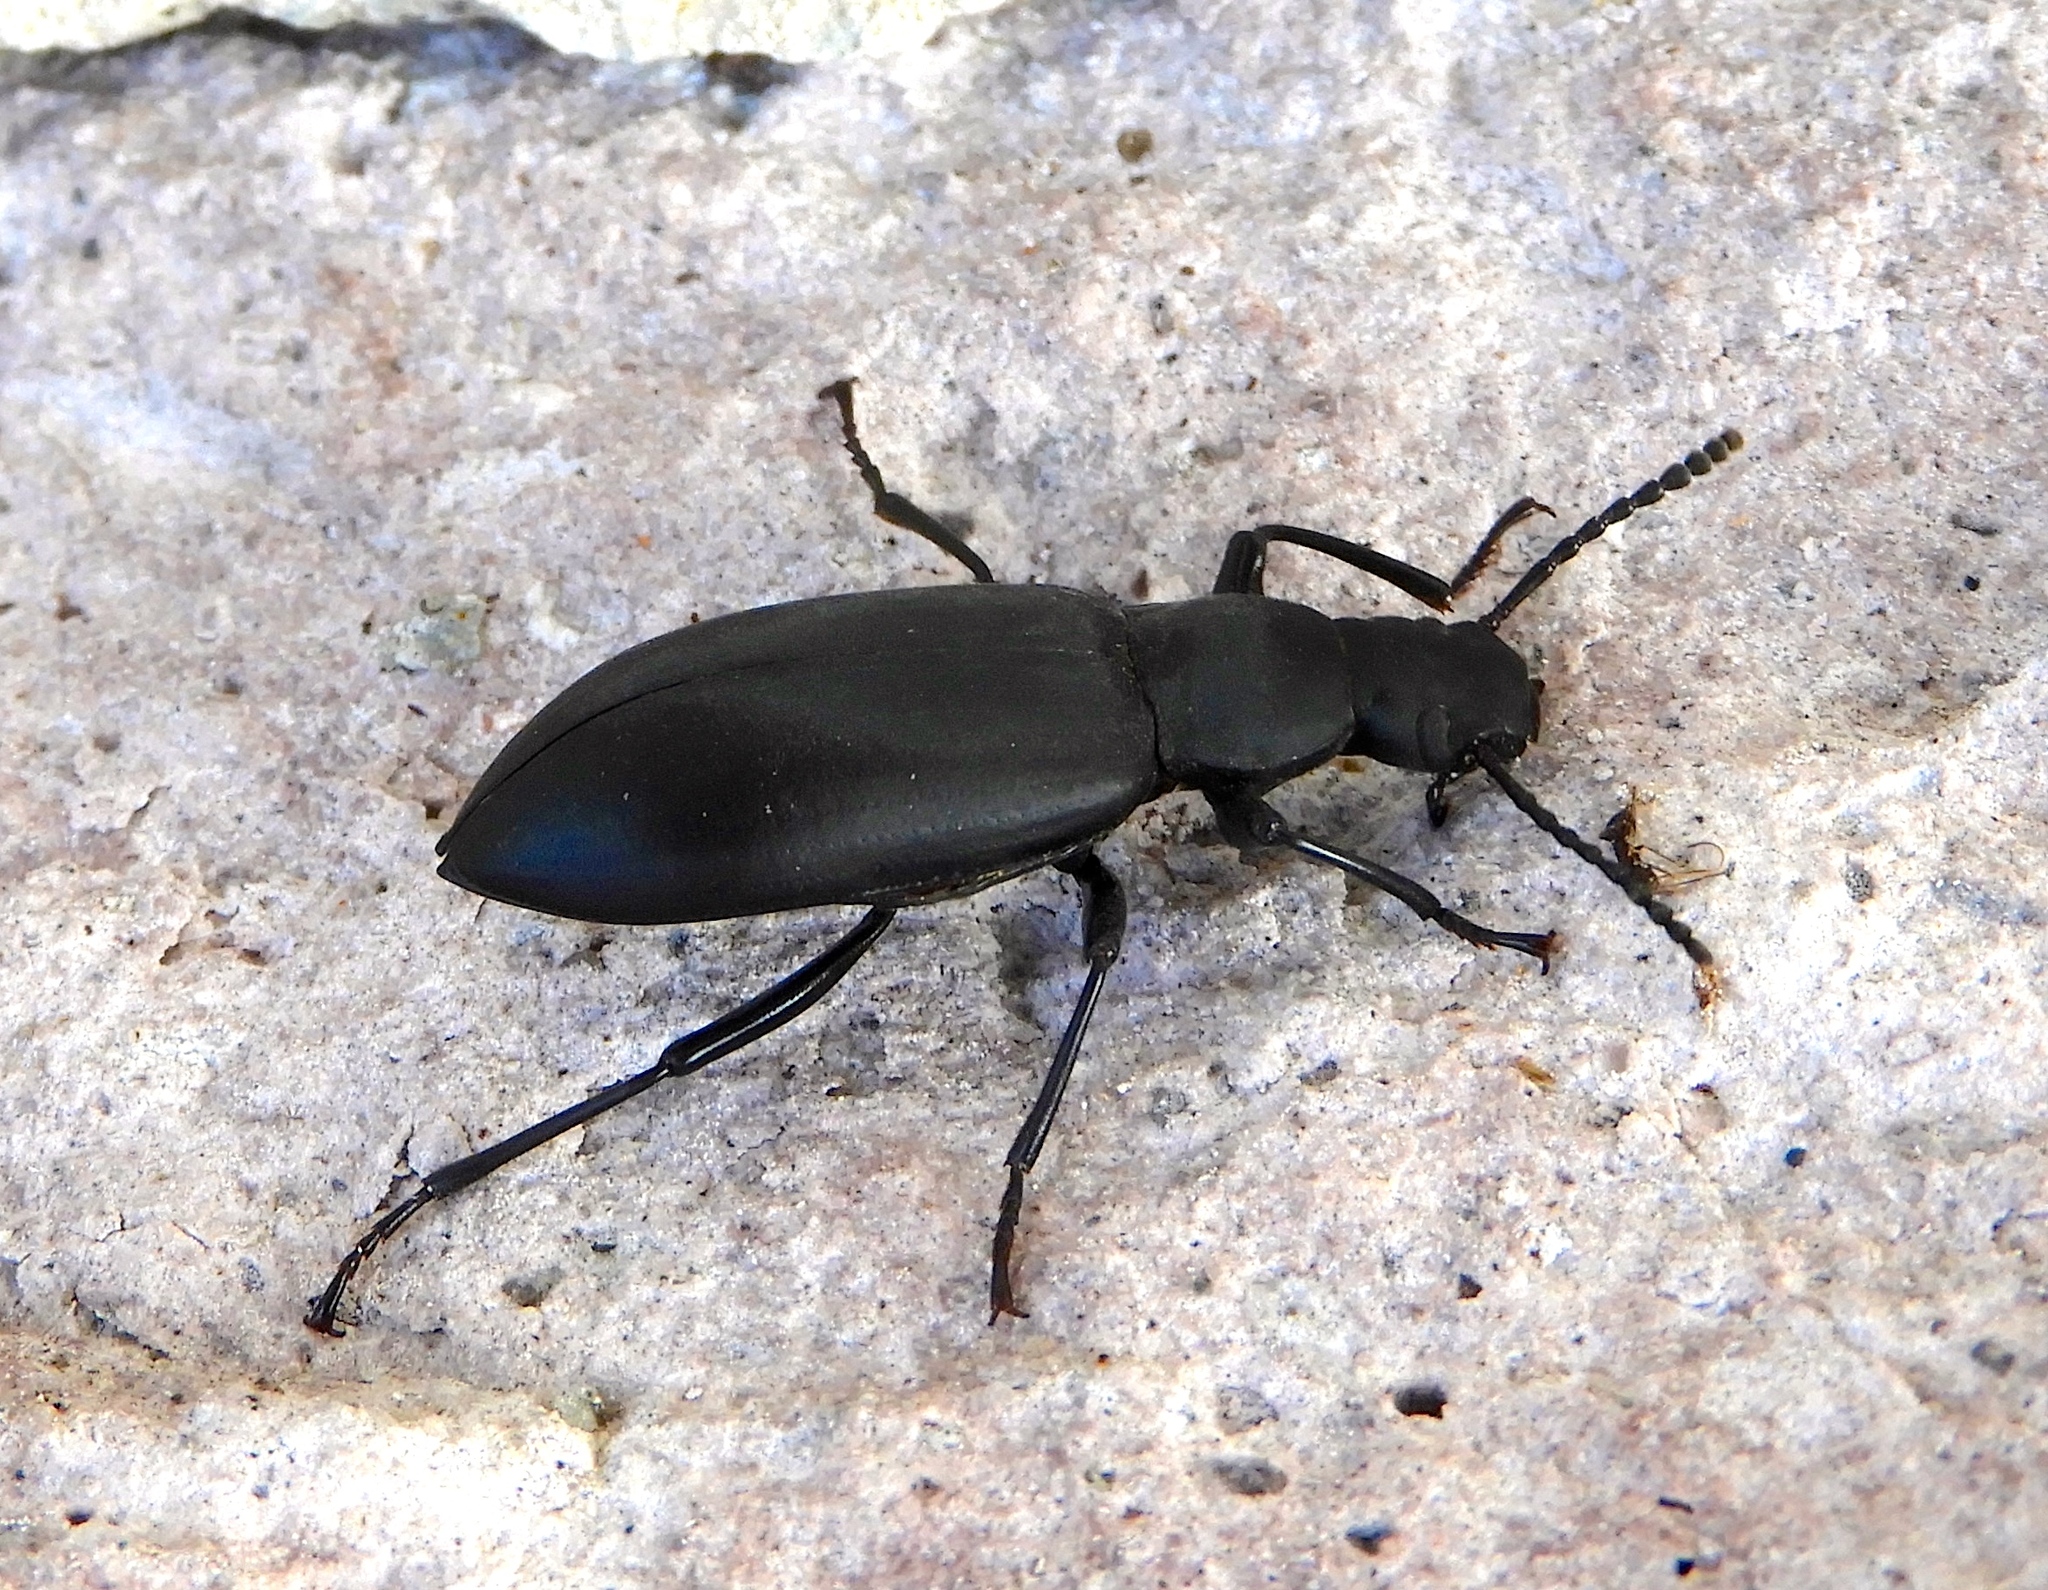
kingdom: Animalia
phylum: Arthropoda
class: Insecta
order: Coleoptera
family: Tenebrionidae
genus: Rhinandrus
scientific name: Rhinandrus obsoletus
